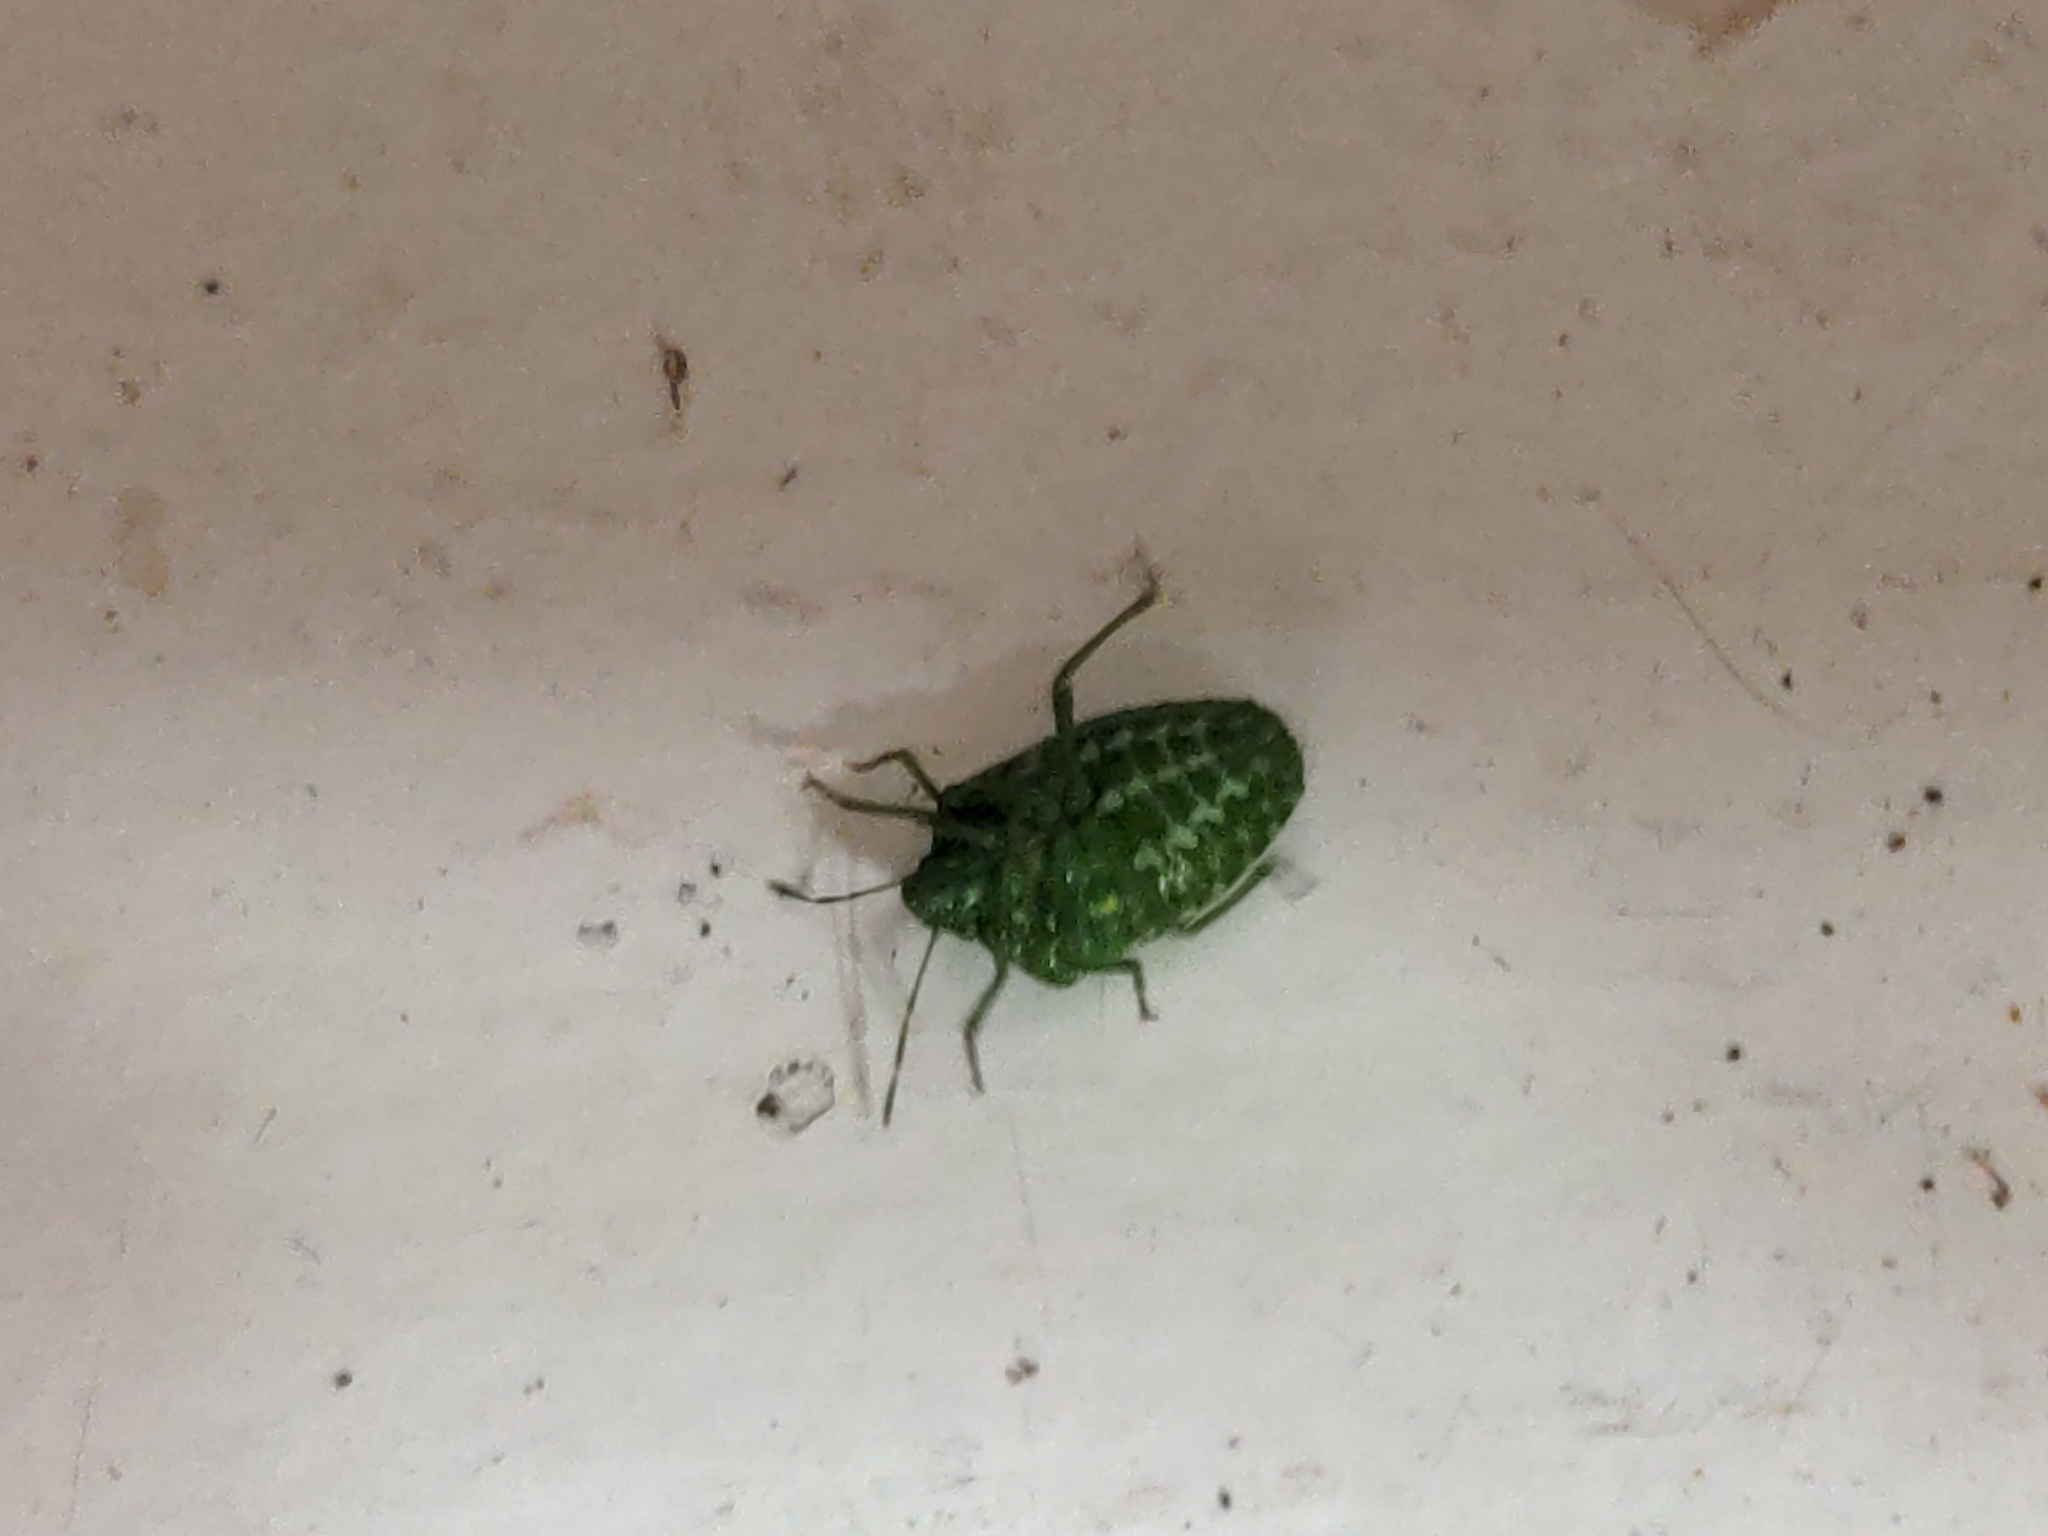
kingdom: Animalia
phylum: Arthropoda
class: Insecta
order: Hemiptera
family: Pentatomidae
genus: Banasa
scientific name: Banasa euchlora
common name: Cedar berry bug
